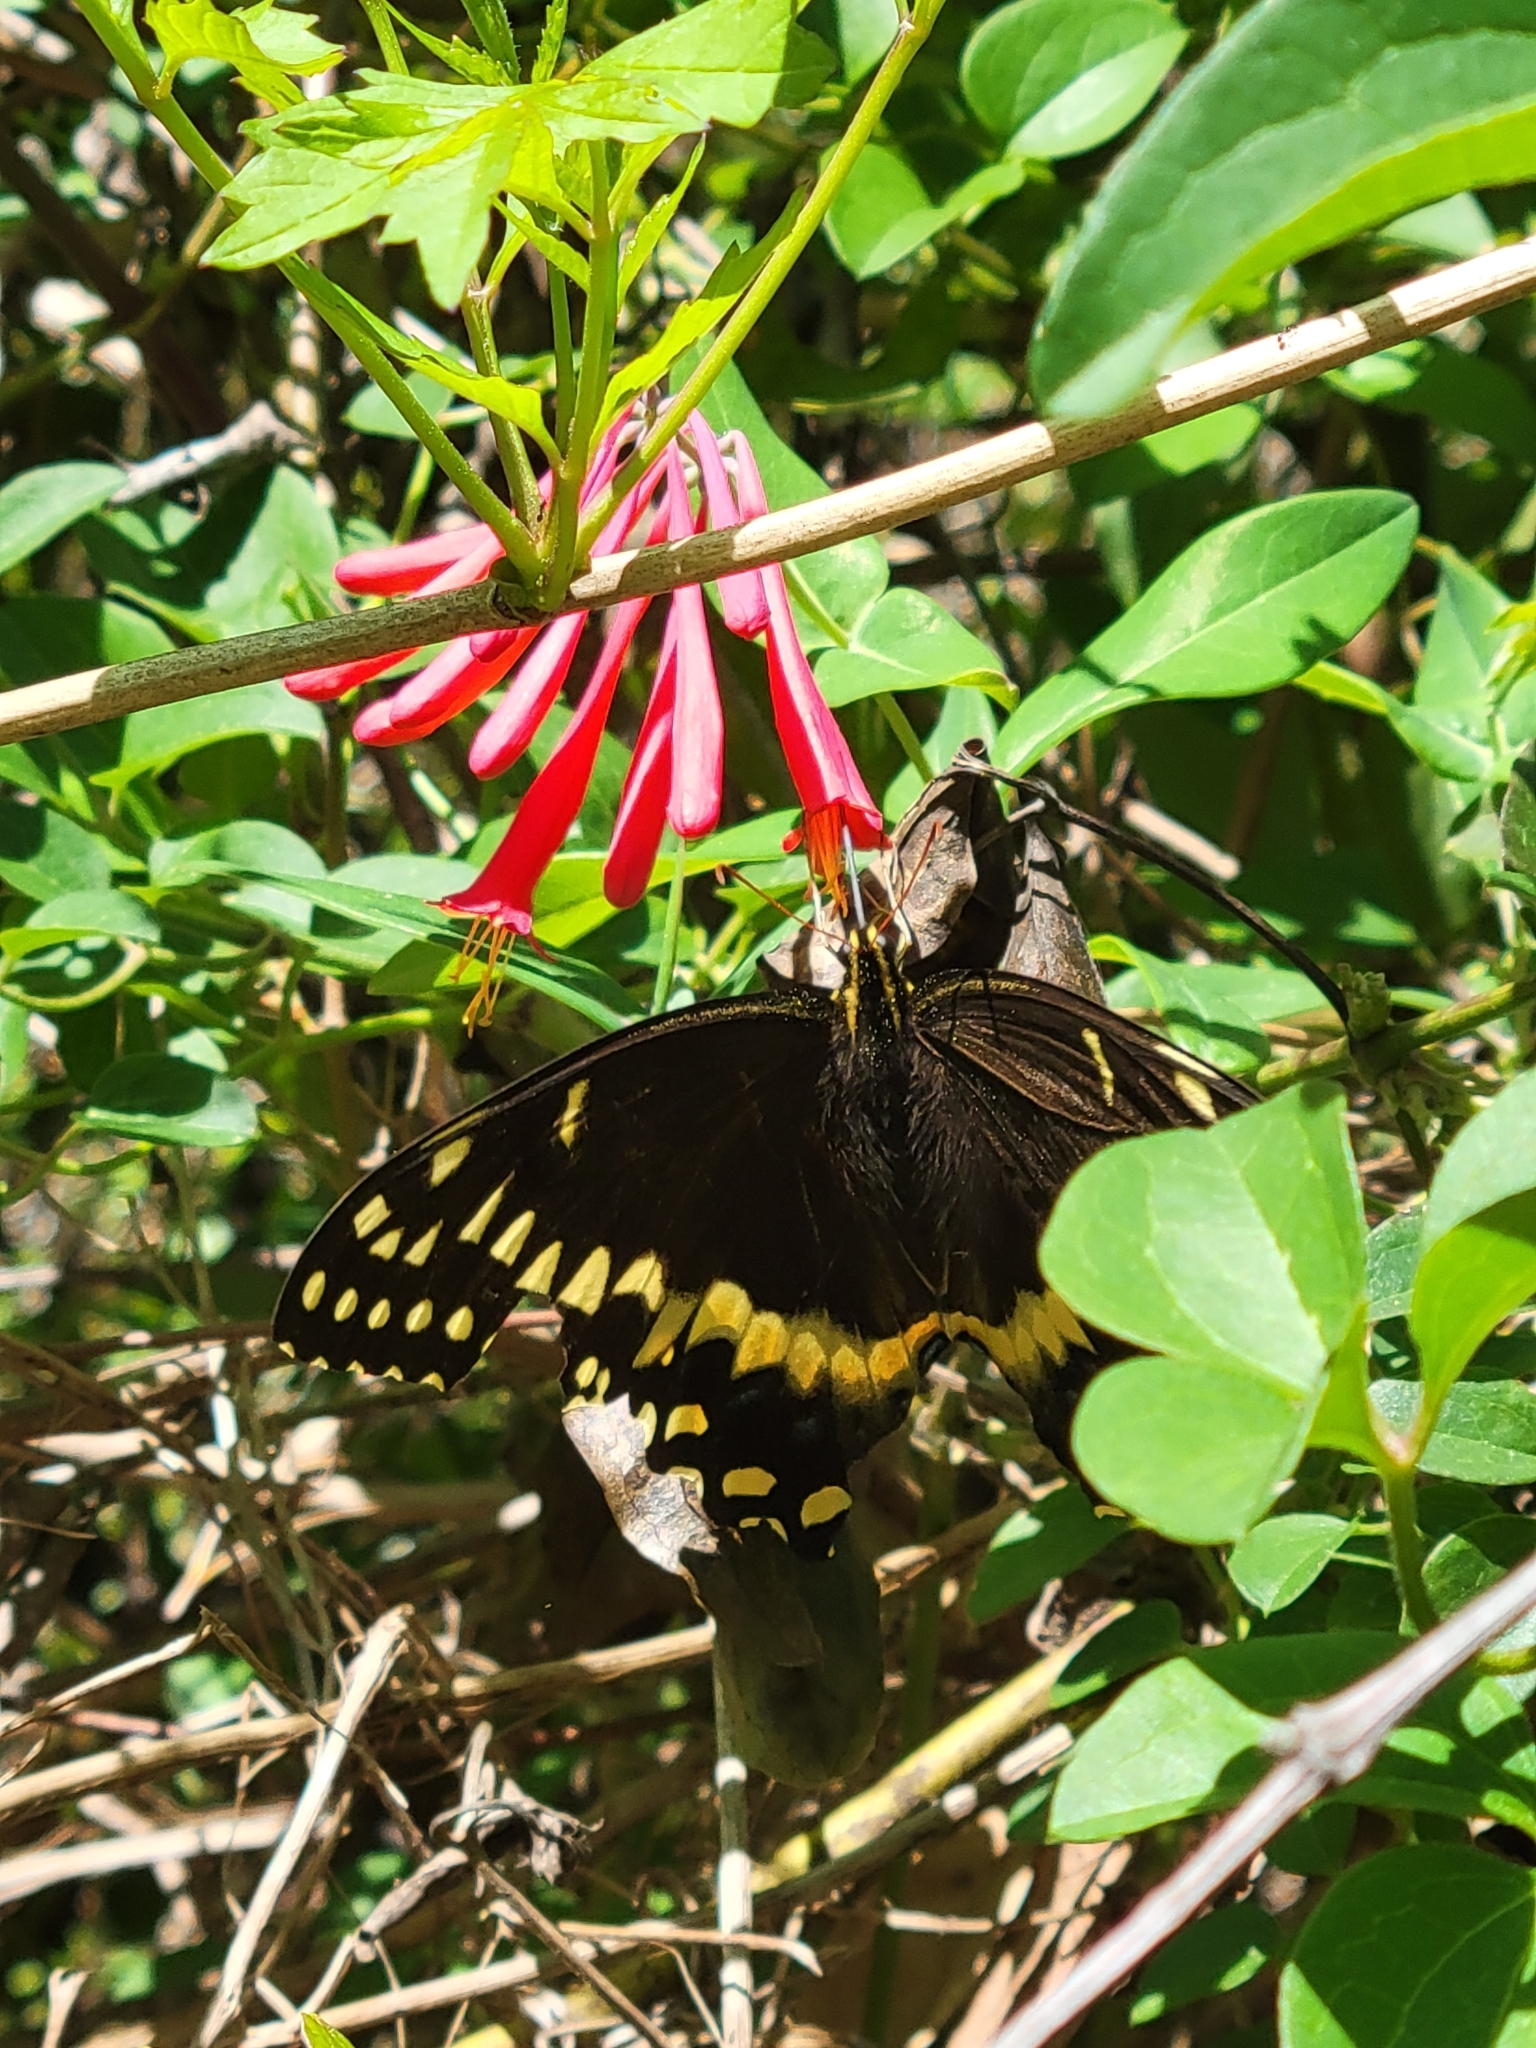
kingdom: Animalia
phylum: Arthropoda
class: Insecta
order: Lepidoptera
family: Papilionidae
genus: Papilio
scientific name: Papilio palamedes
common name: Palamedes swallowtail
